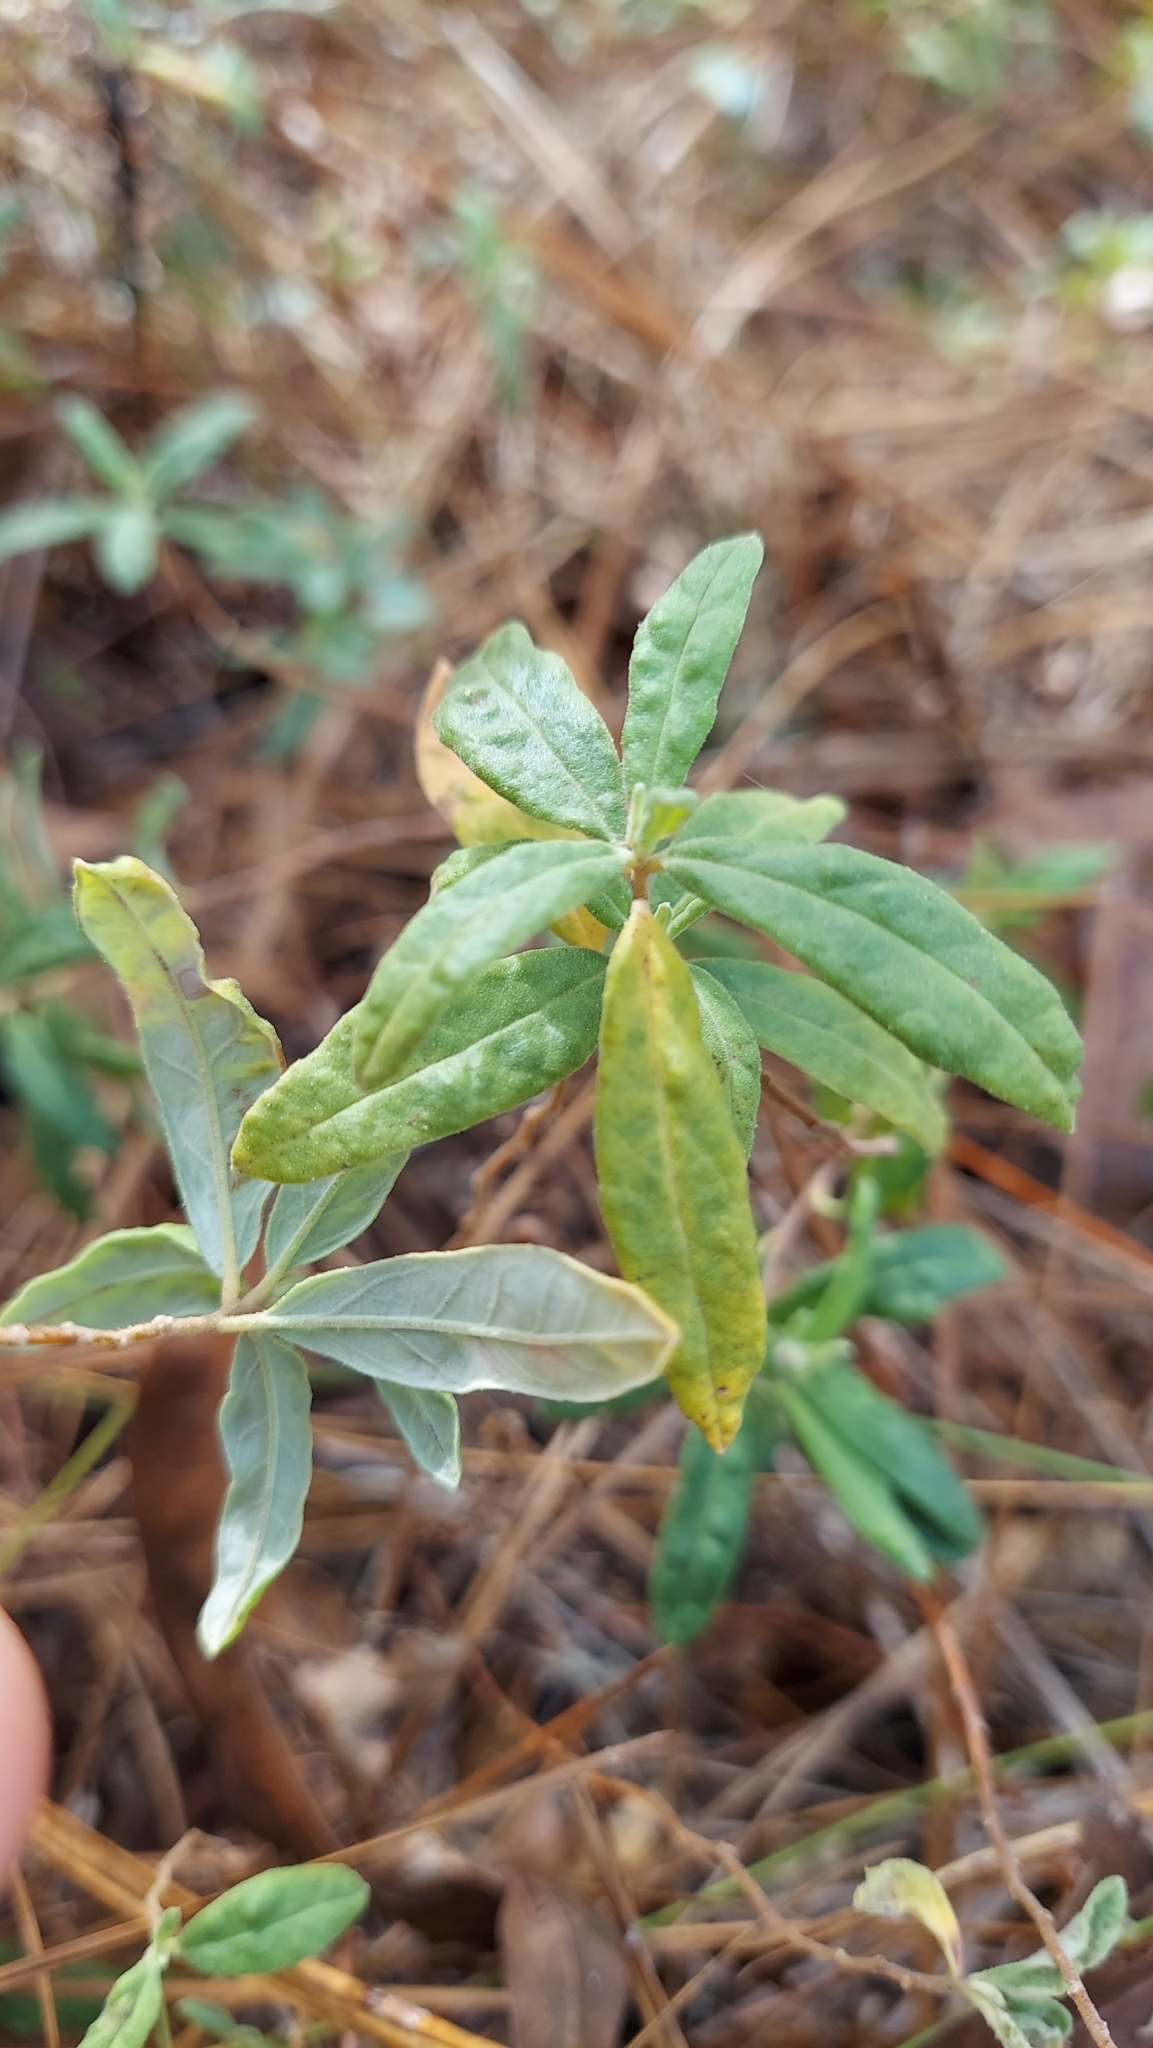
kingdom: Plantae
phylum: Tracheophyta
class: Magnoliopsida
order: Malvales
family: Cistaceae
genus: Crocanthemum
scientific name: Crocanthemum corymbosum
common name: Pinebarren sun-rose
